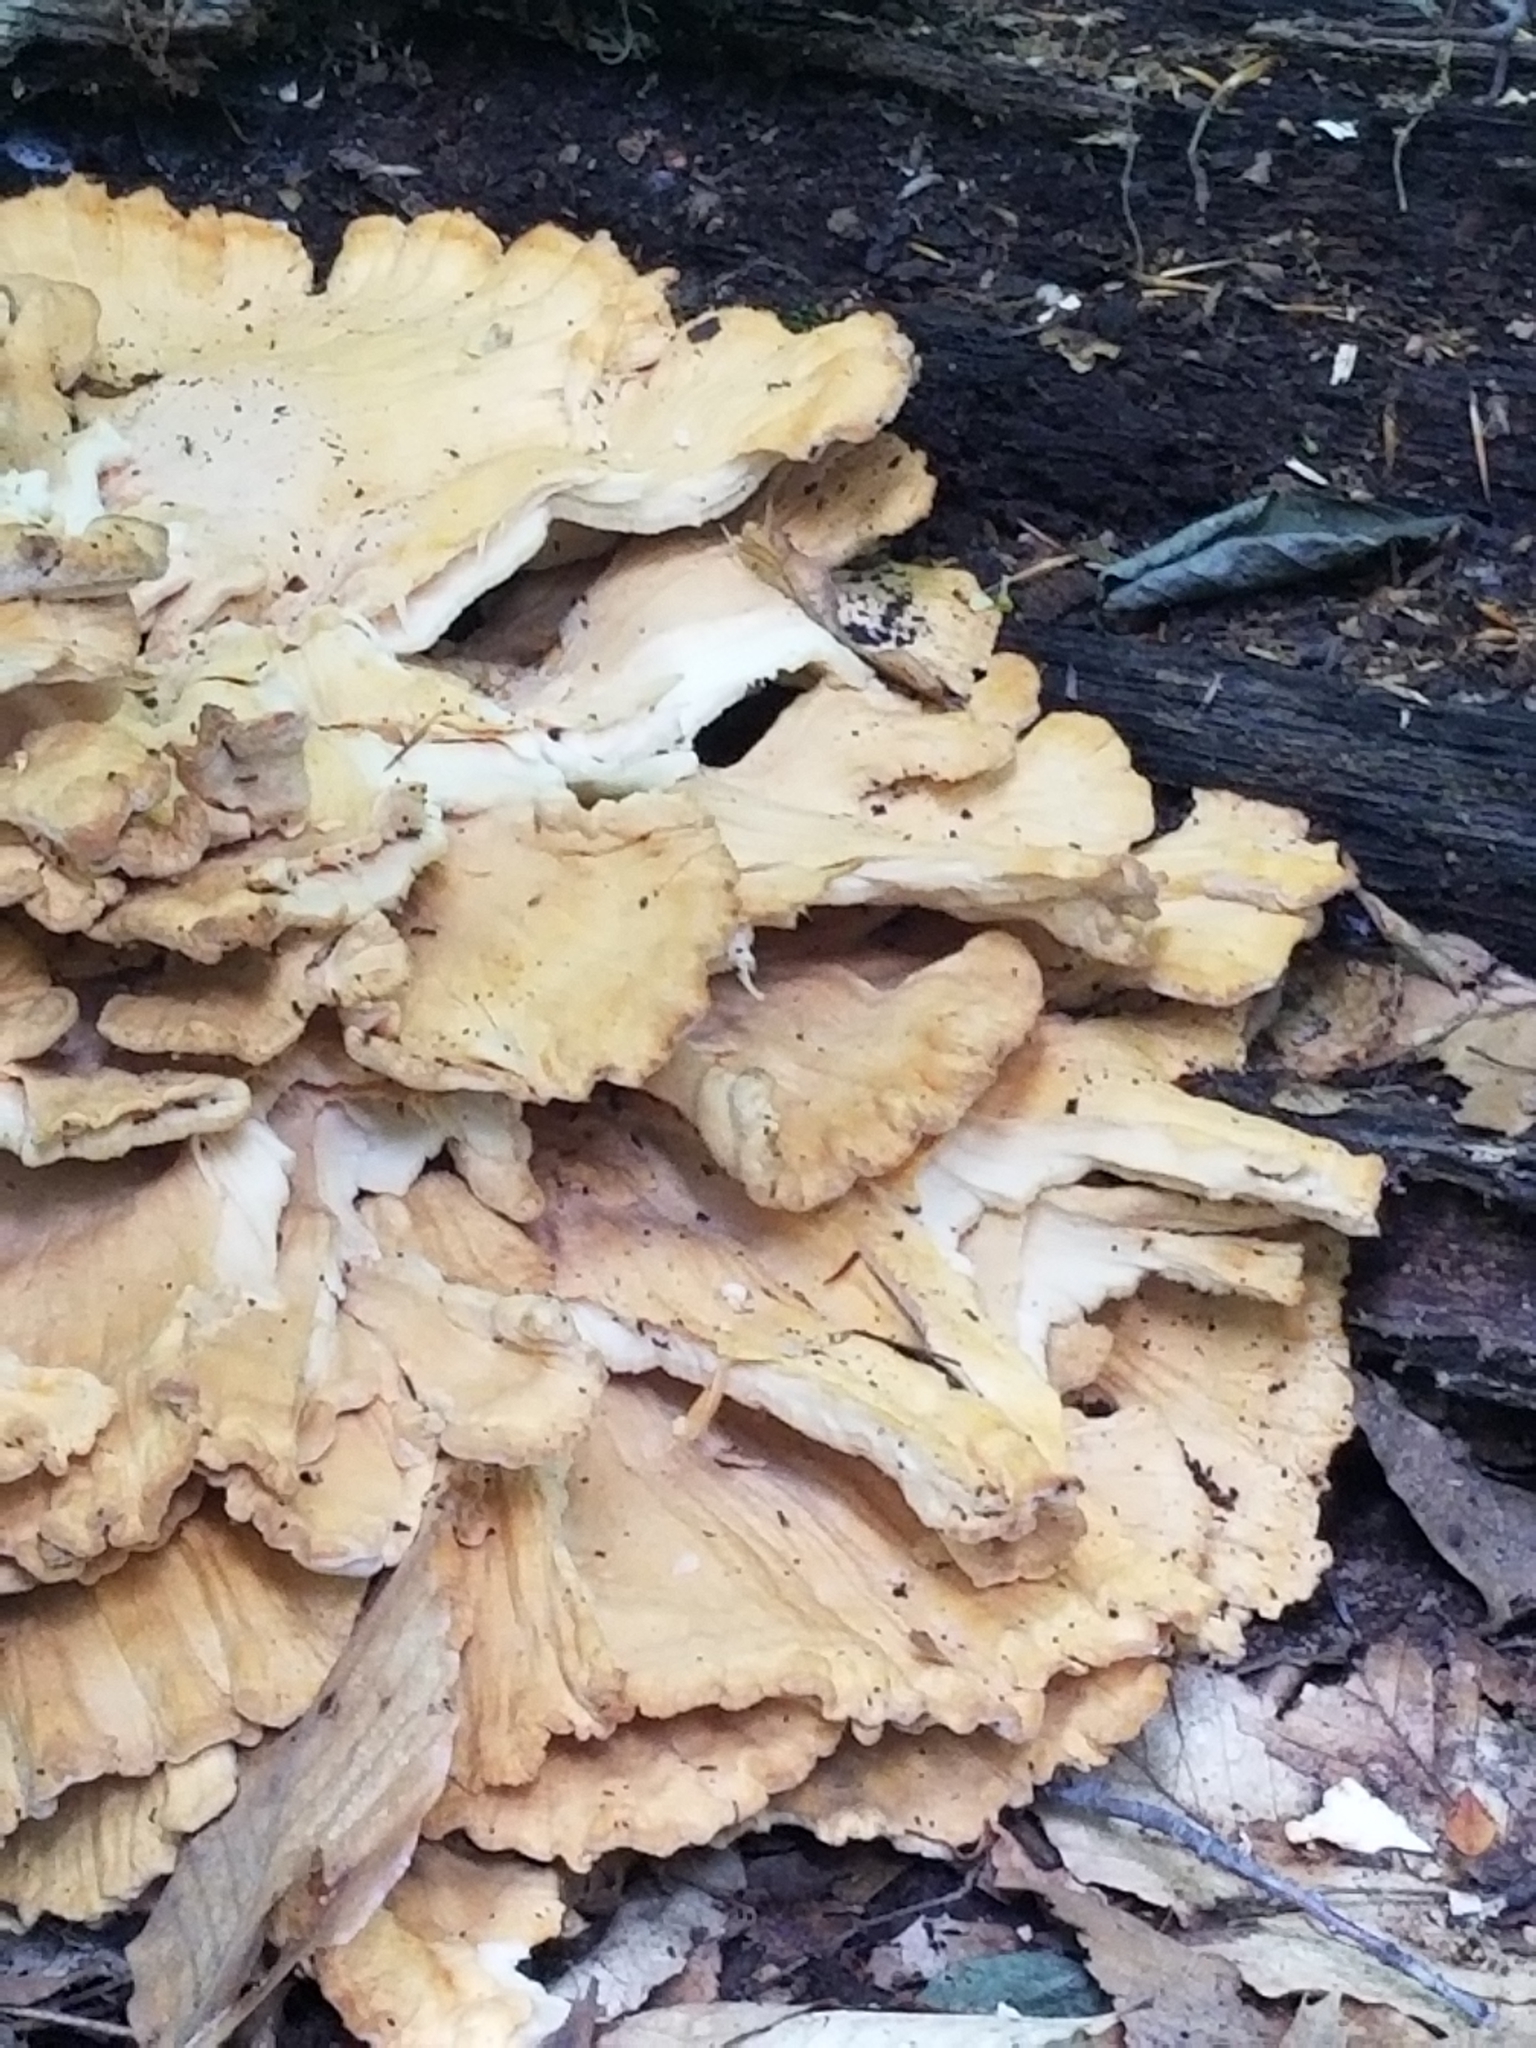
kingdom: Fungi
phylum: Basidiomycota
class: Agaricomycetes
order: Polyporales
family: Laetiporaceae
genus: Laetiporus
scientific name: Laetiporus sulphureus
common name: Chicken of the woods
